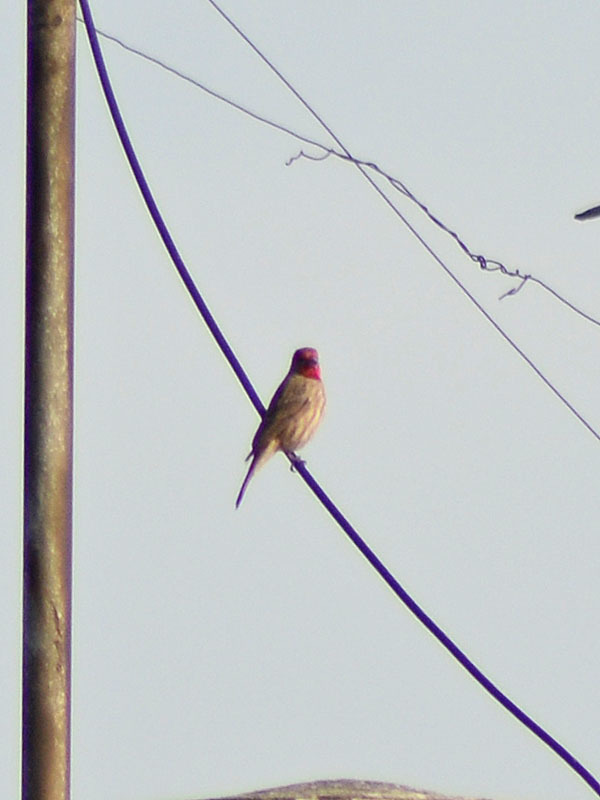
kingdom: Animalia
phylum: Chordata
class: Aves
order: Passeriformes
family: Fringillidae
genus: Haemorhous
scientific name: Haemorhous mexicanus
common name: House finch
